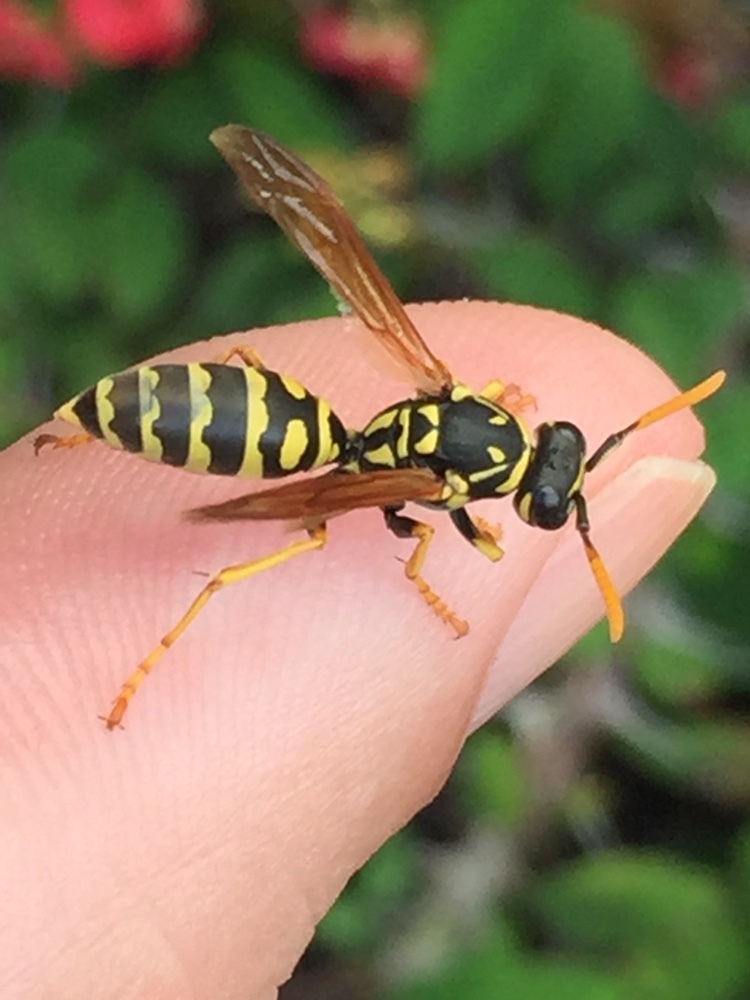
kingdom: Animalia
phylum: Arthropoda
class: Insecta
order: Hymenoptera
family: Eumenidae
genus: Polistes
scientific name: Polistes dominula
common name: Paper wasp
